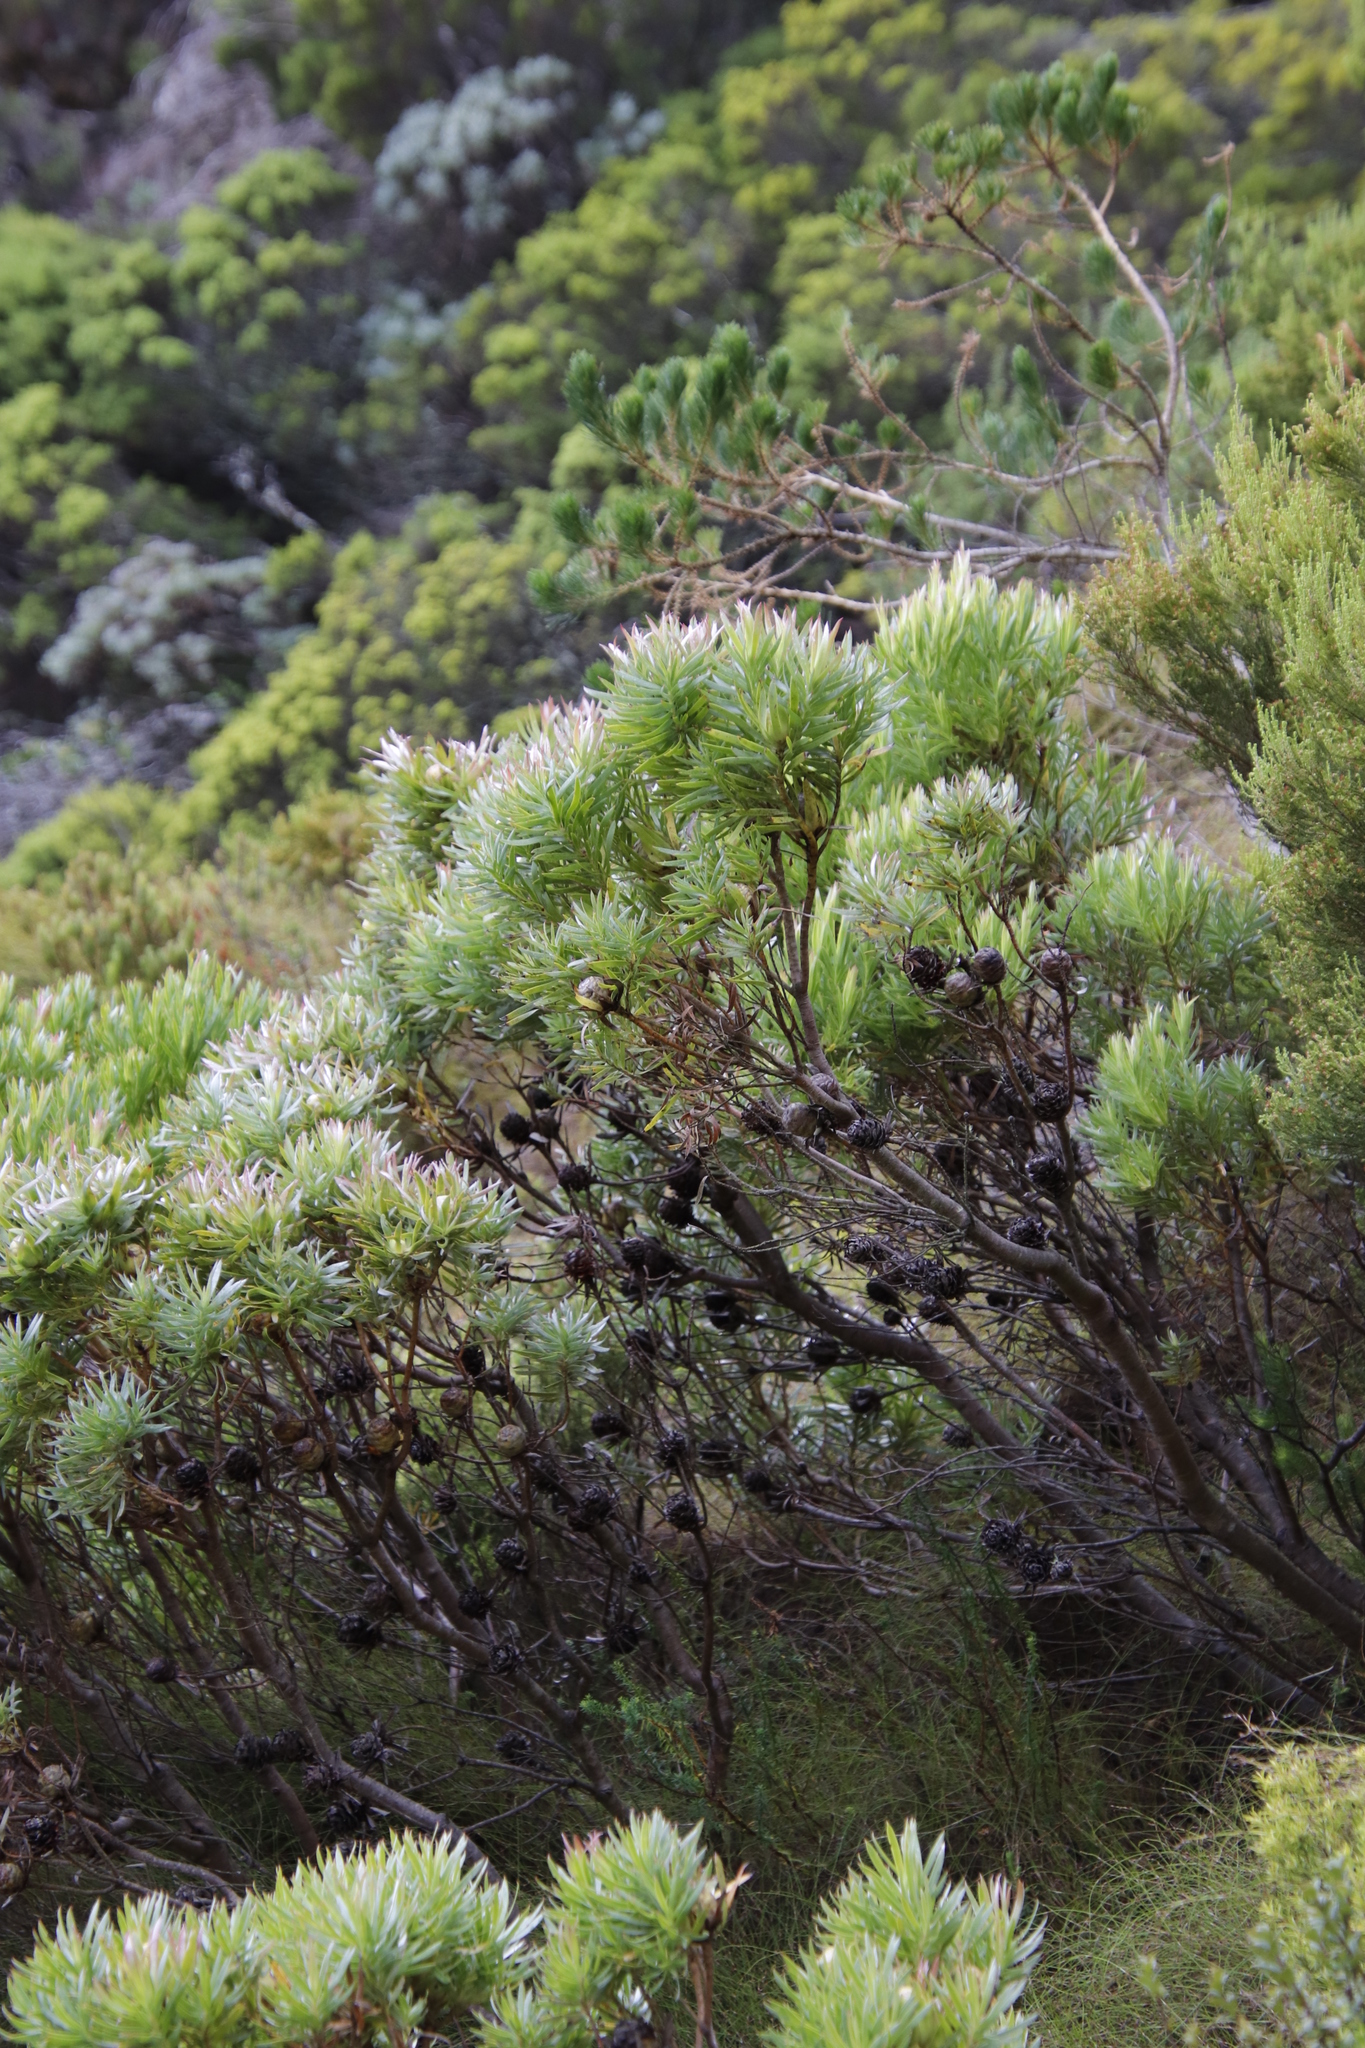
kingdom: Plantae
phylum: Tracheophyta
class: Magnoliopsida
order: Proteales
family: Proteaceae
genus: Leucadendron
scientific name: Leucadendron xanthoconus
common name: Sickle-leaf conebush
